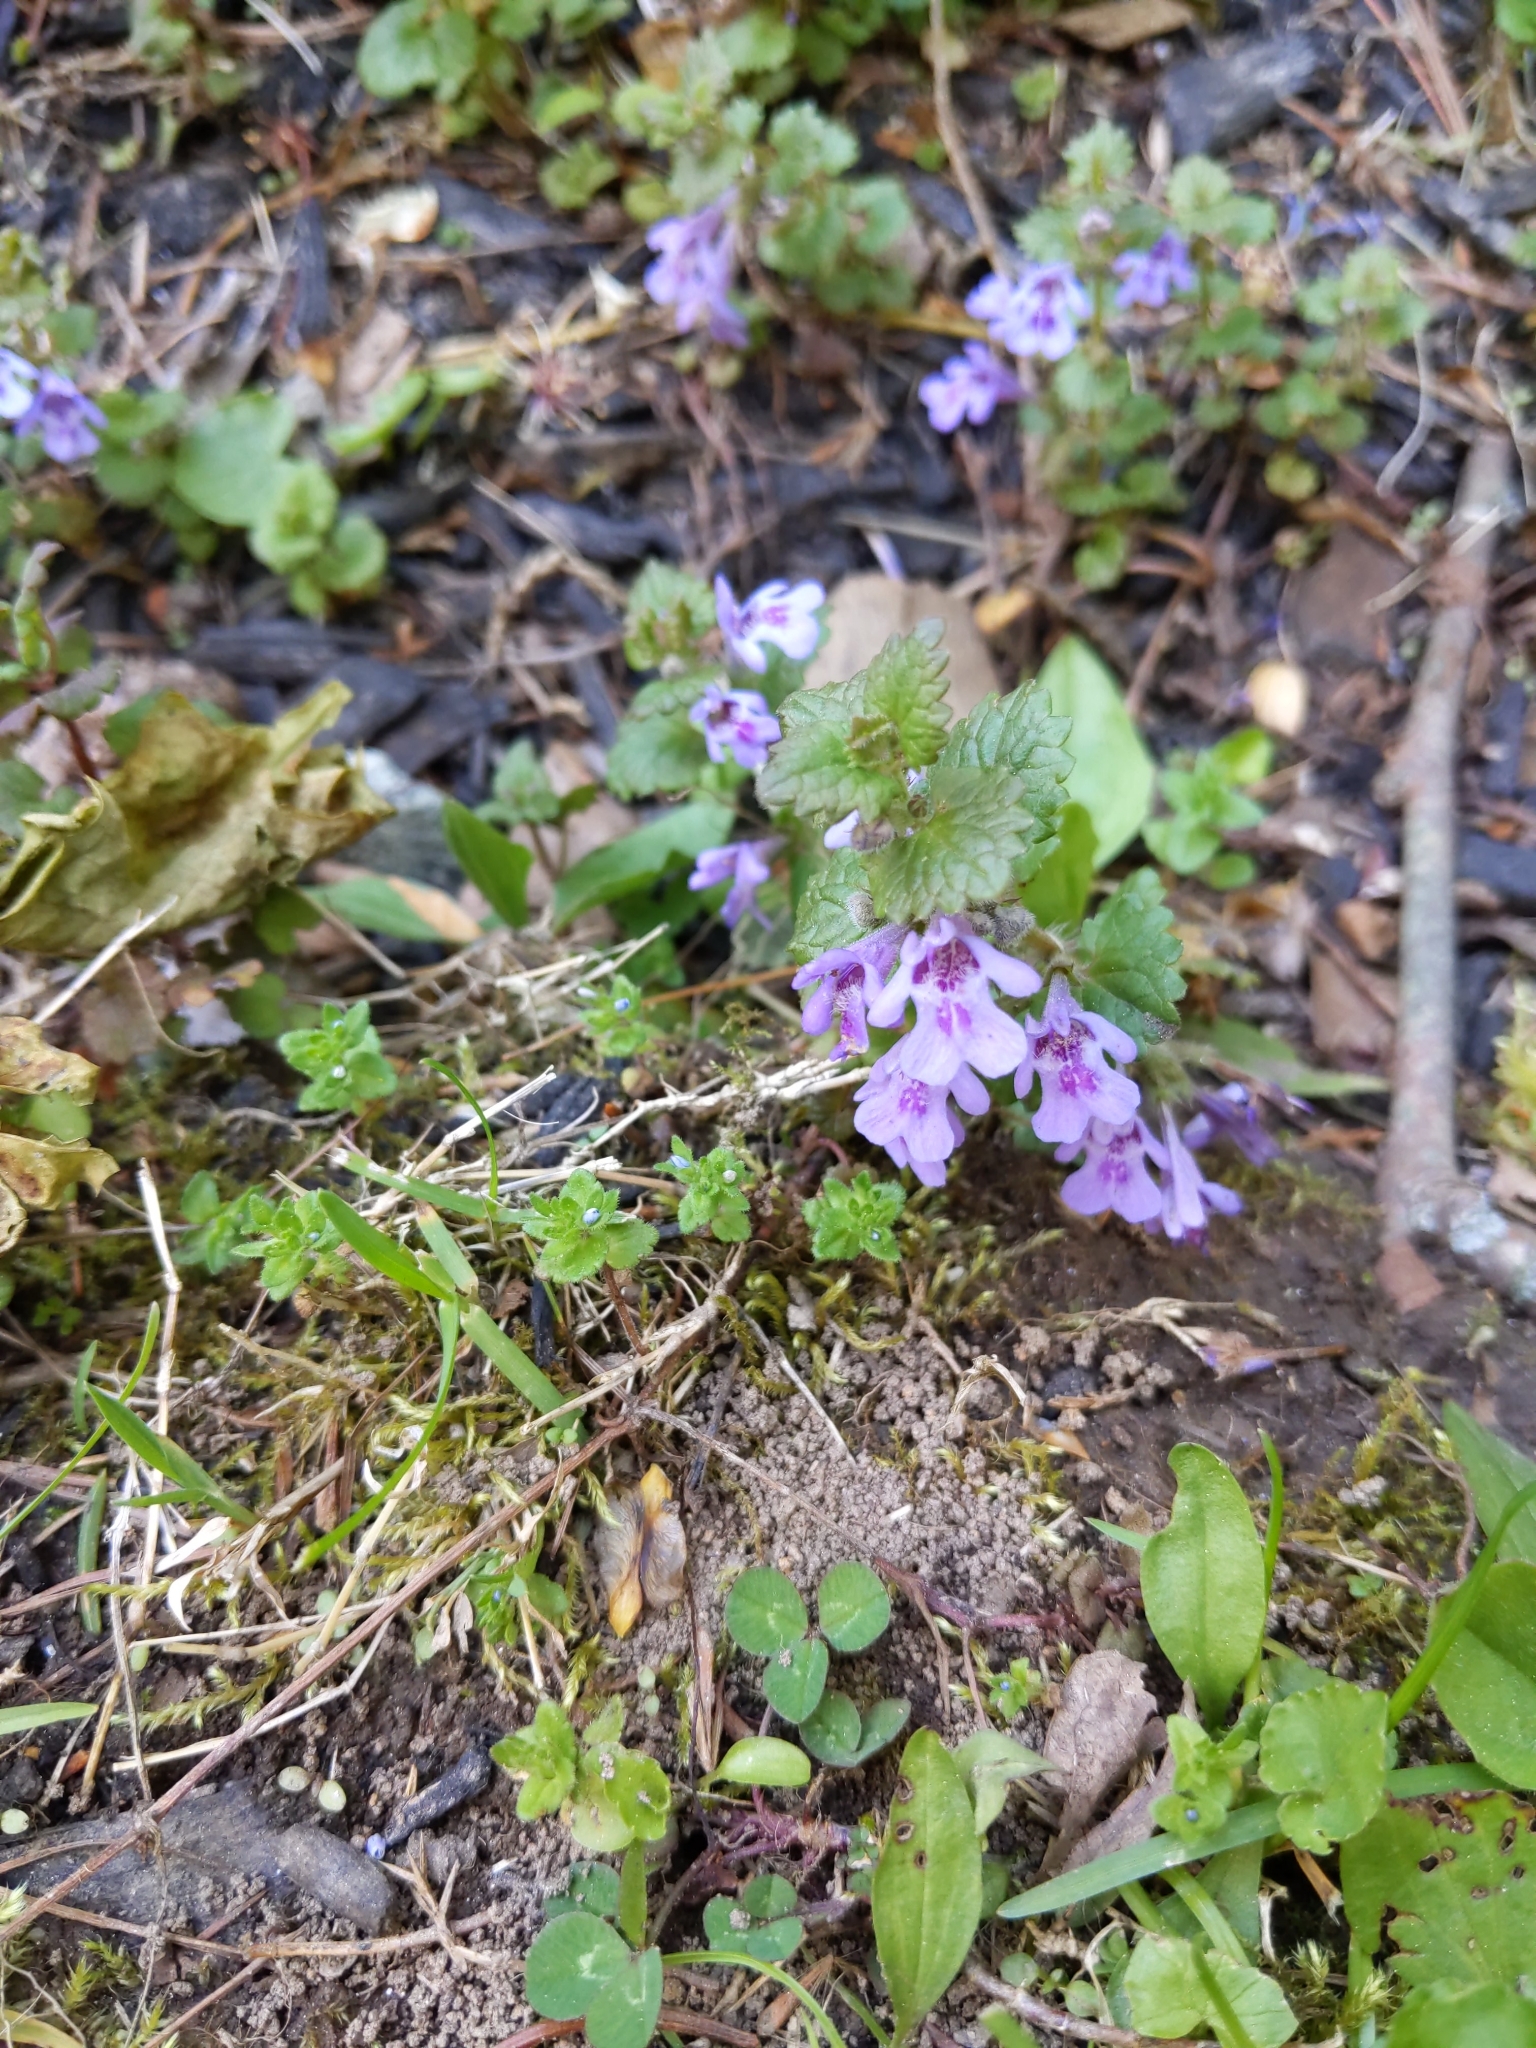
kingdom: Plantae
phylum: Tracheophyta
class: Magnoliopsida
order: Lamiales
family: Lamiaceae
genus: Glechoma
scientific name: Glechoma hederacea
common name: Ground ivy
